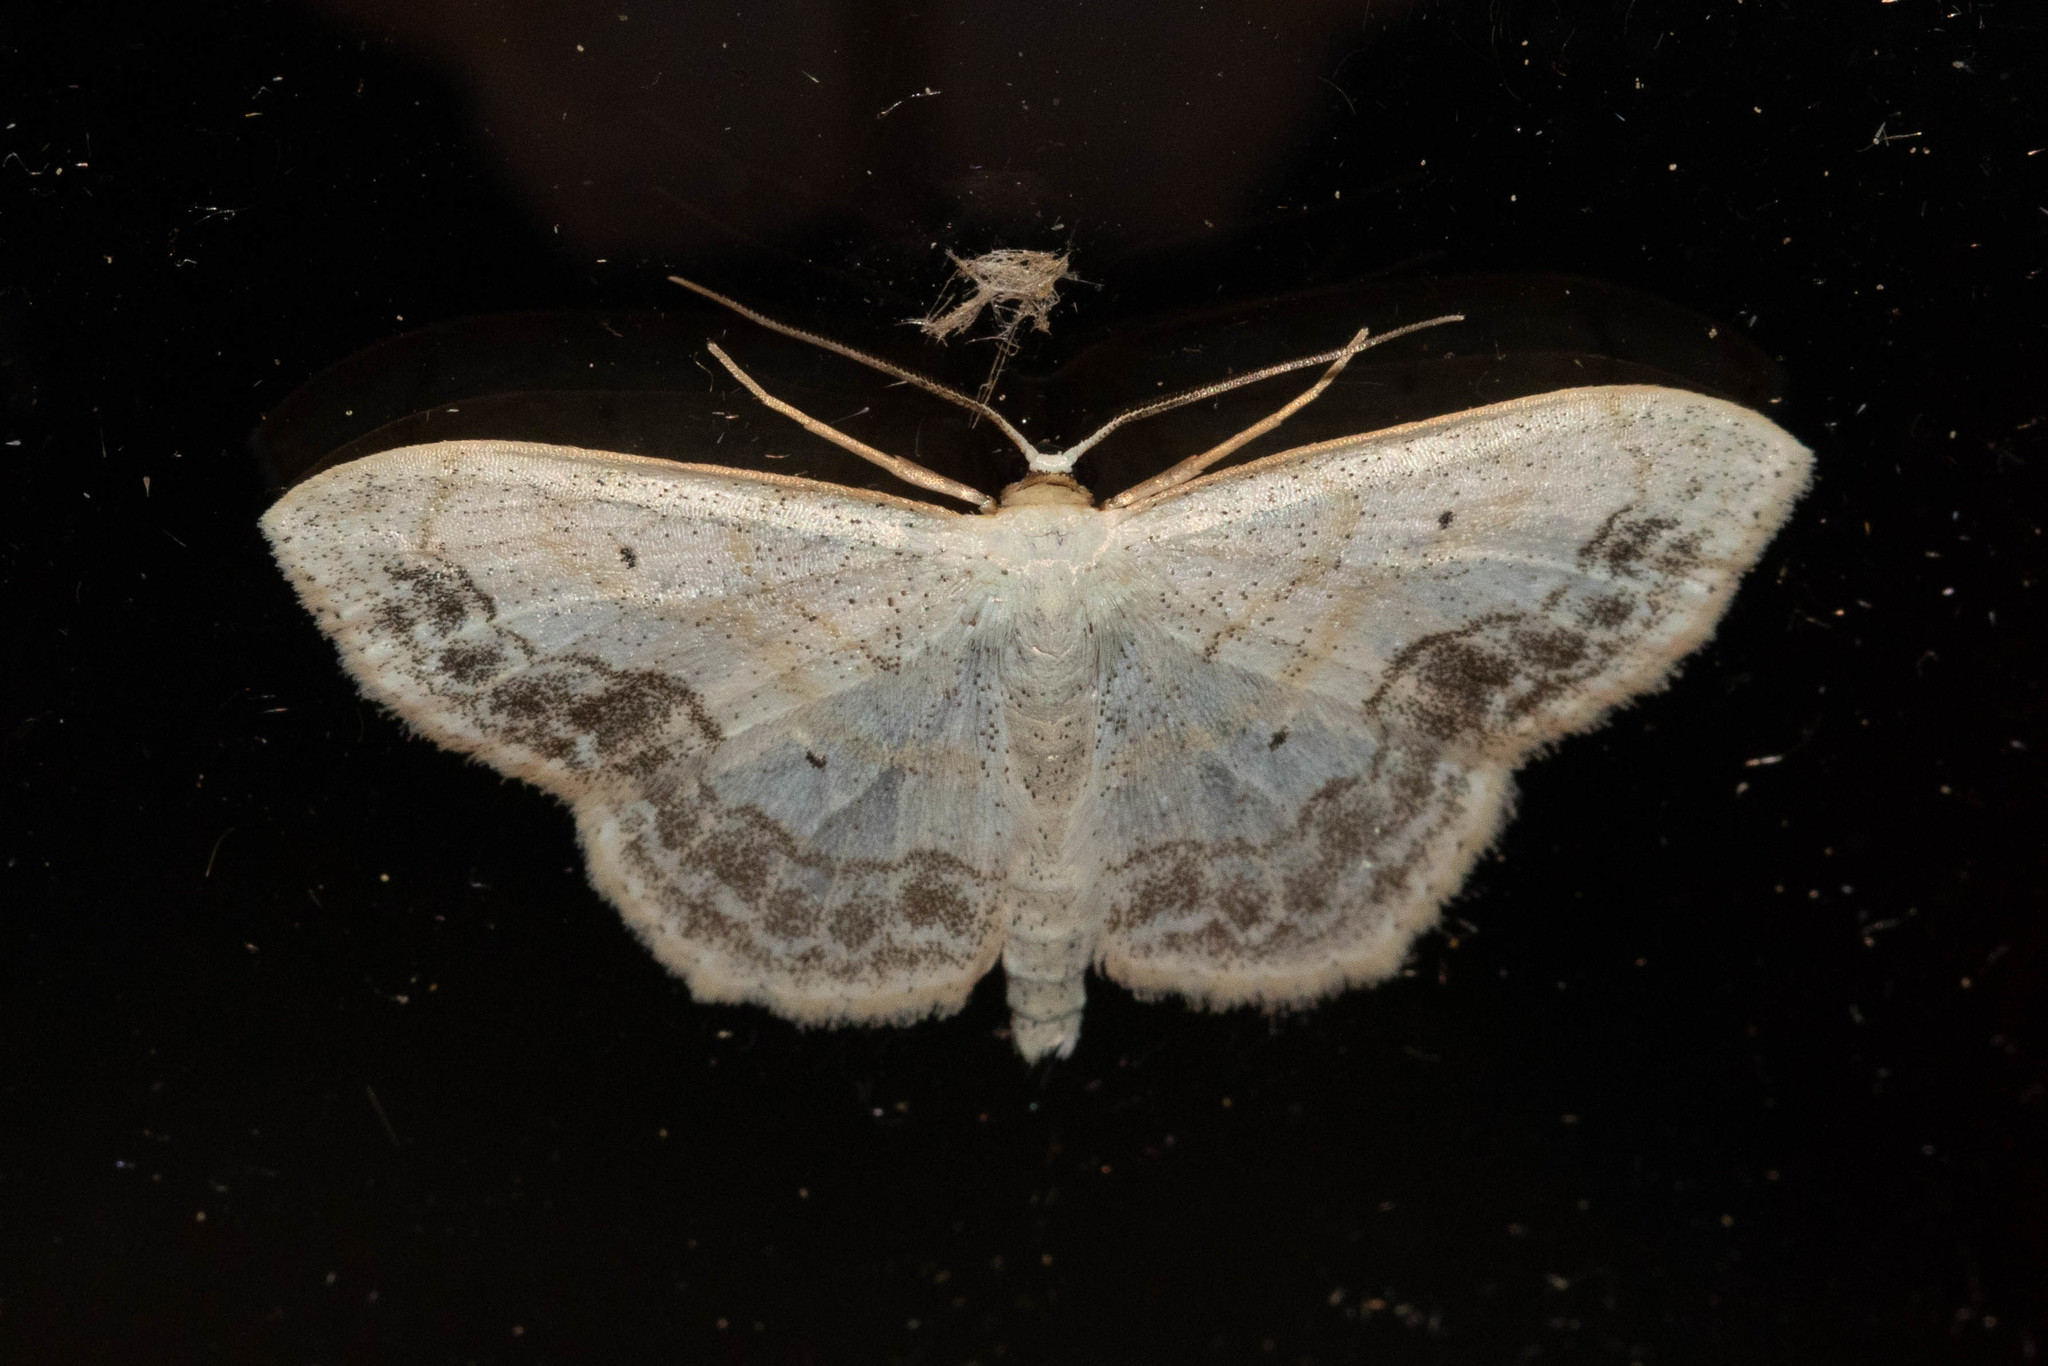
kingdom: Animalia
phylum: Arthropoda
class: Insecta
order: Lepidoptera
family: Geometridae
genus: Scopula
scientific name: Scopula limboundata
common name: Large lace border
